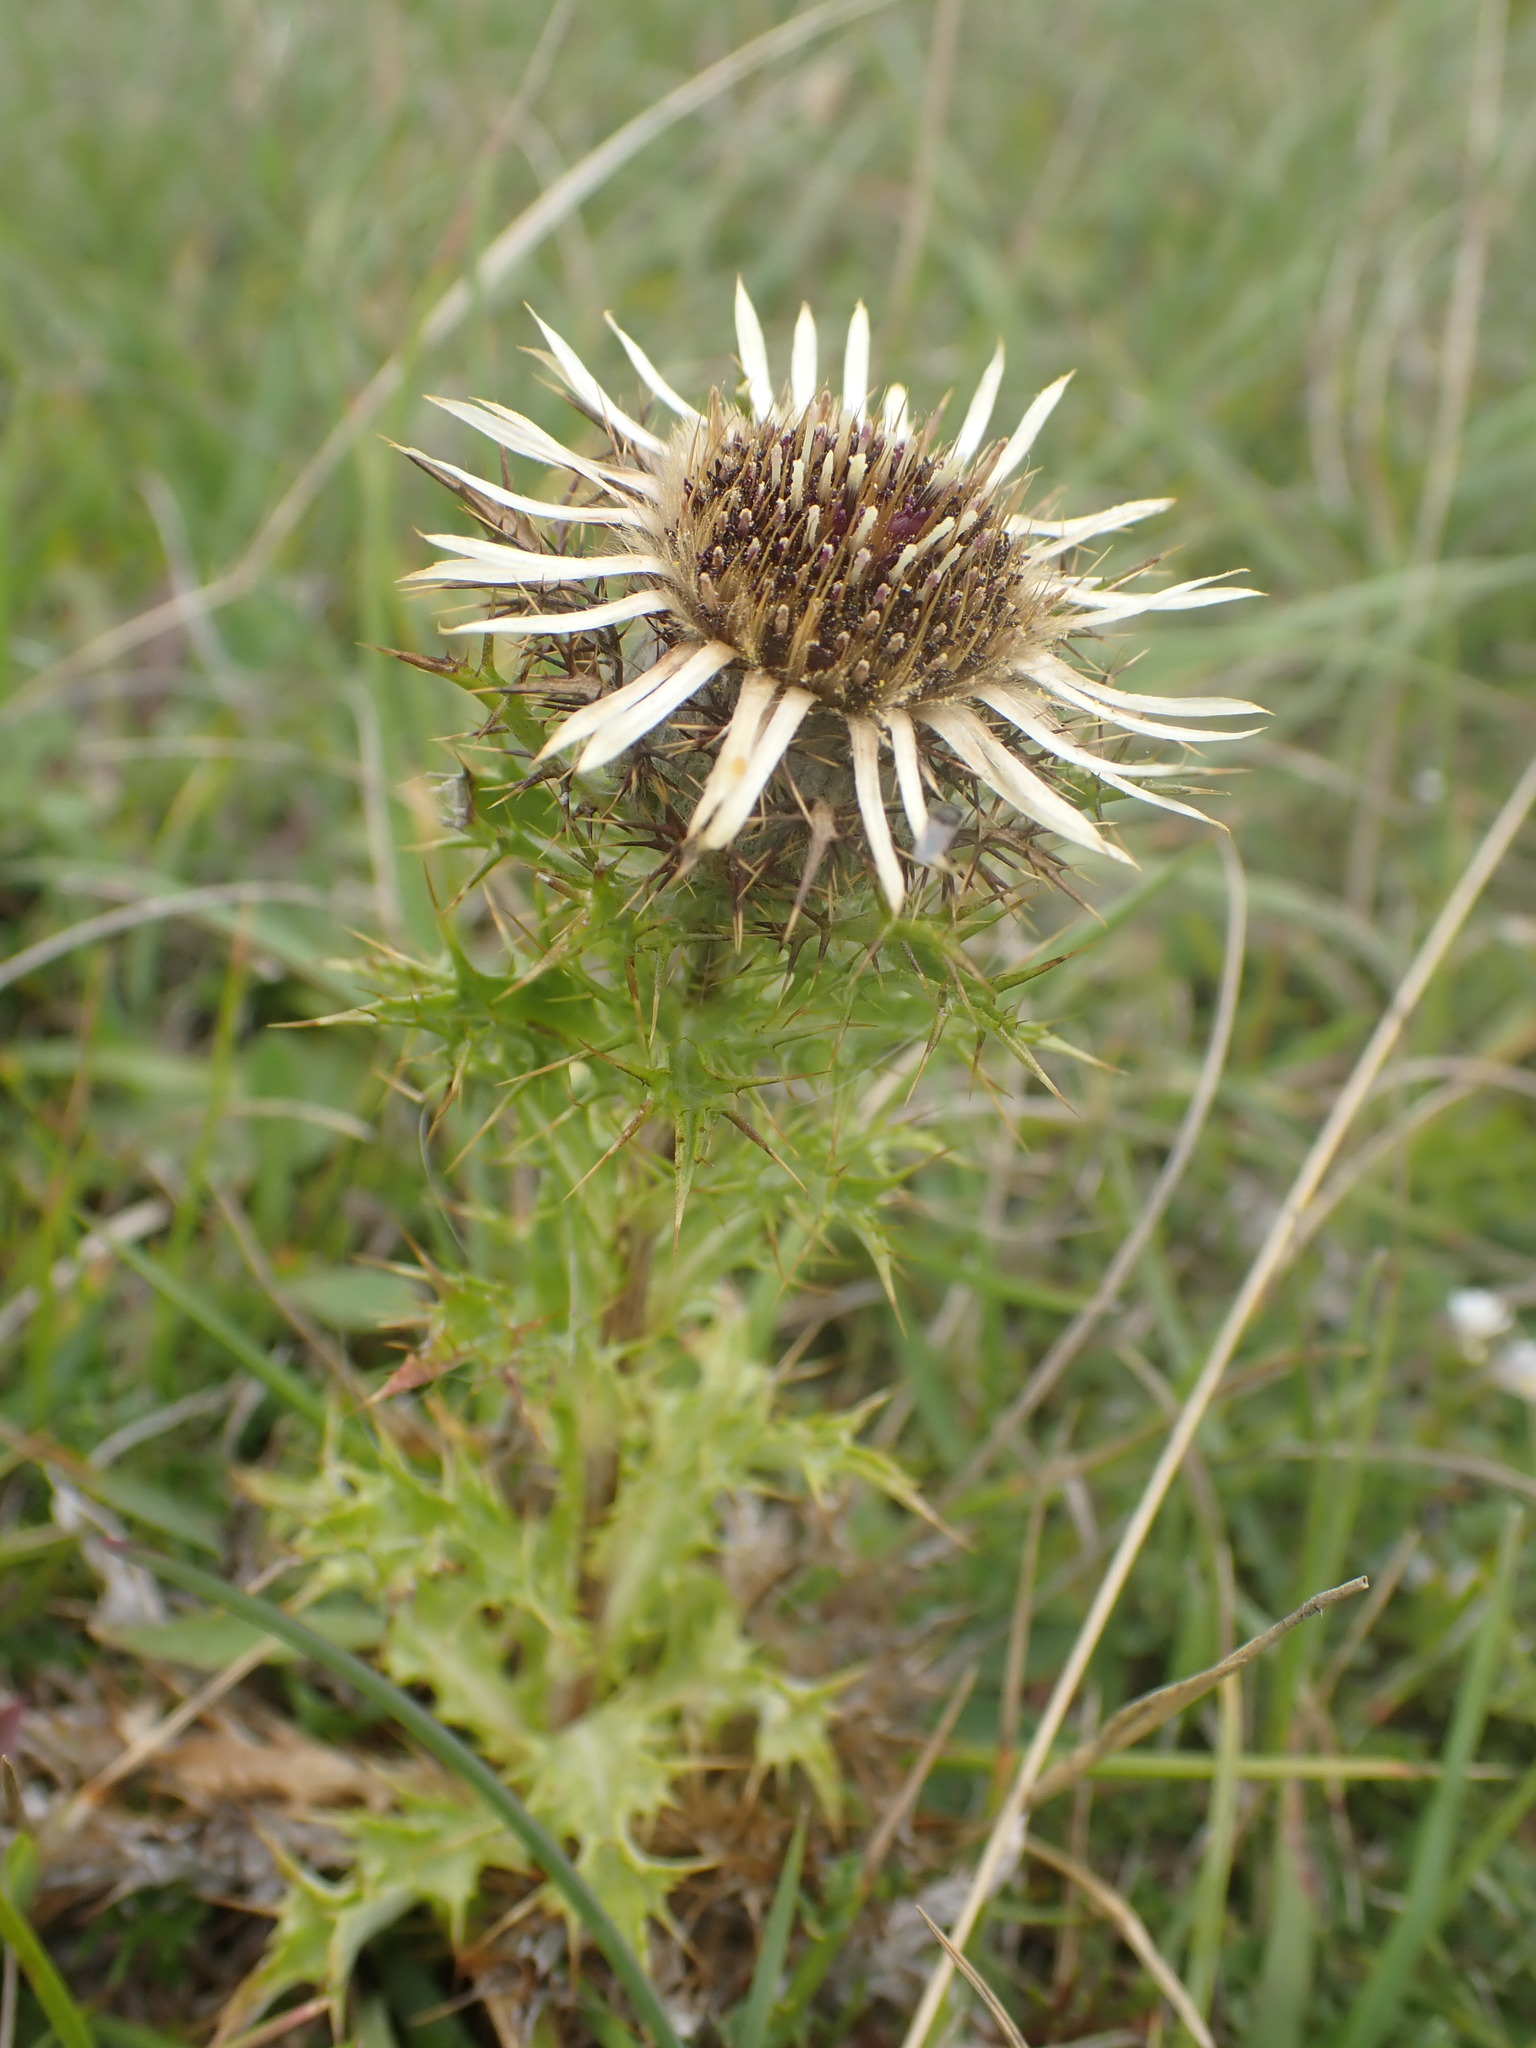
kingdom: Plantae
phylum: Tracheophyta
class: Magnoliopsida
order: Asterales
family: Asteraceae
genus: Carlina
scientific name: Carlina vulgaris
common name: Carline thistle
